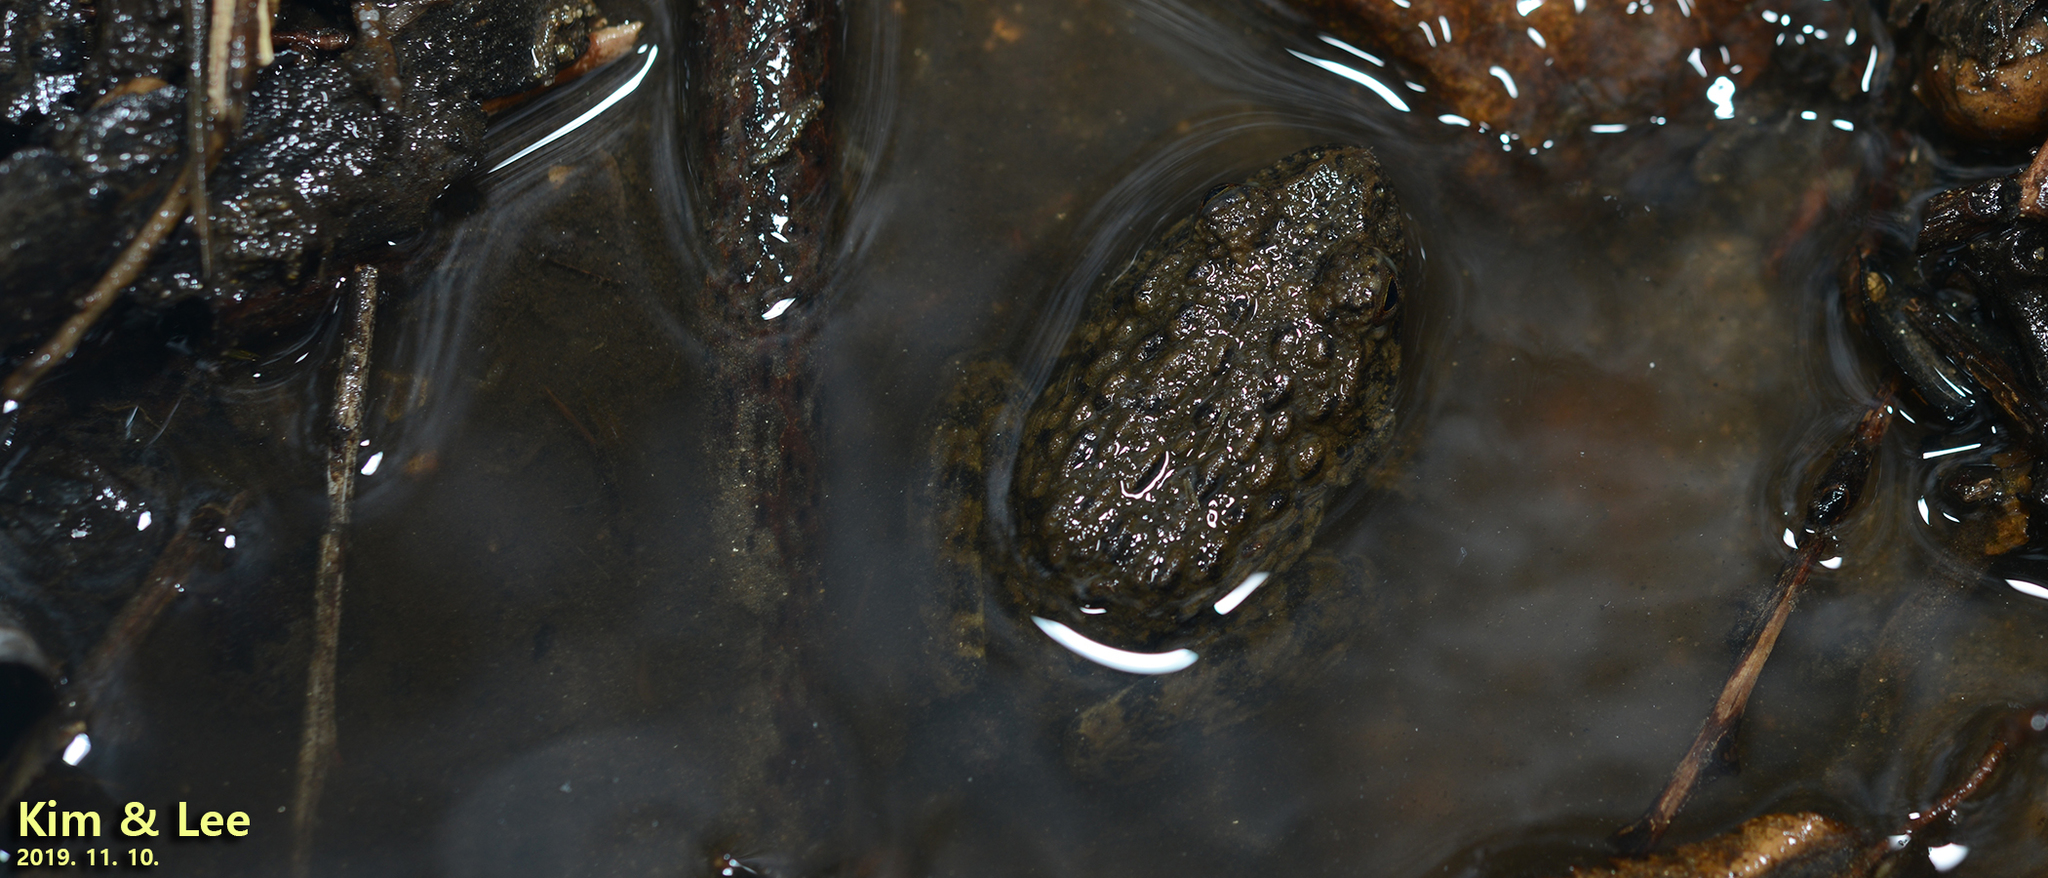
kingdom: Animalia
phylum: Chordata
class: Amphibia
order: Anura
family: Ranidae
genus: Glandirana
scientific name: Glandirana emeljanovi
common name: Northeast china rough-skinned frog
